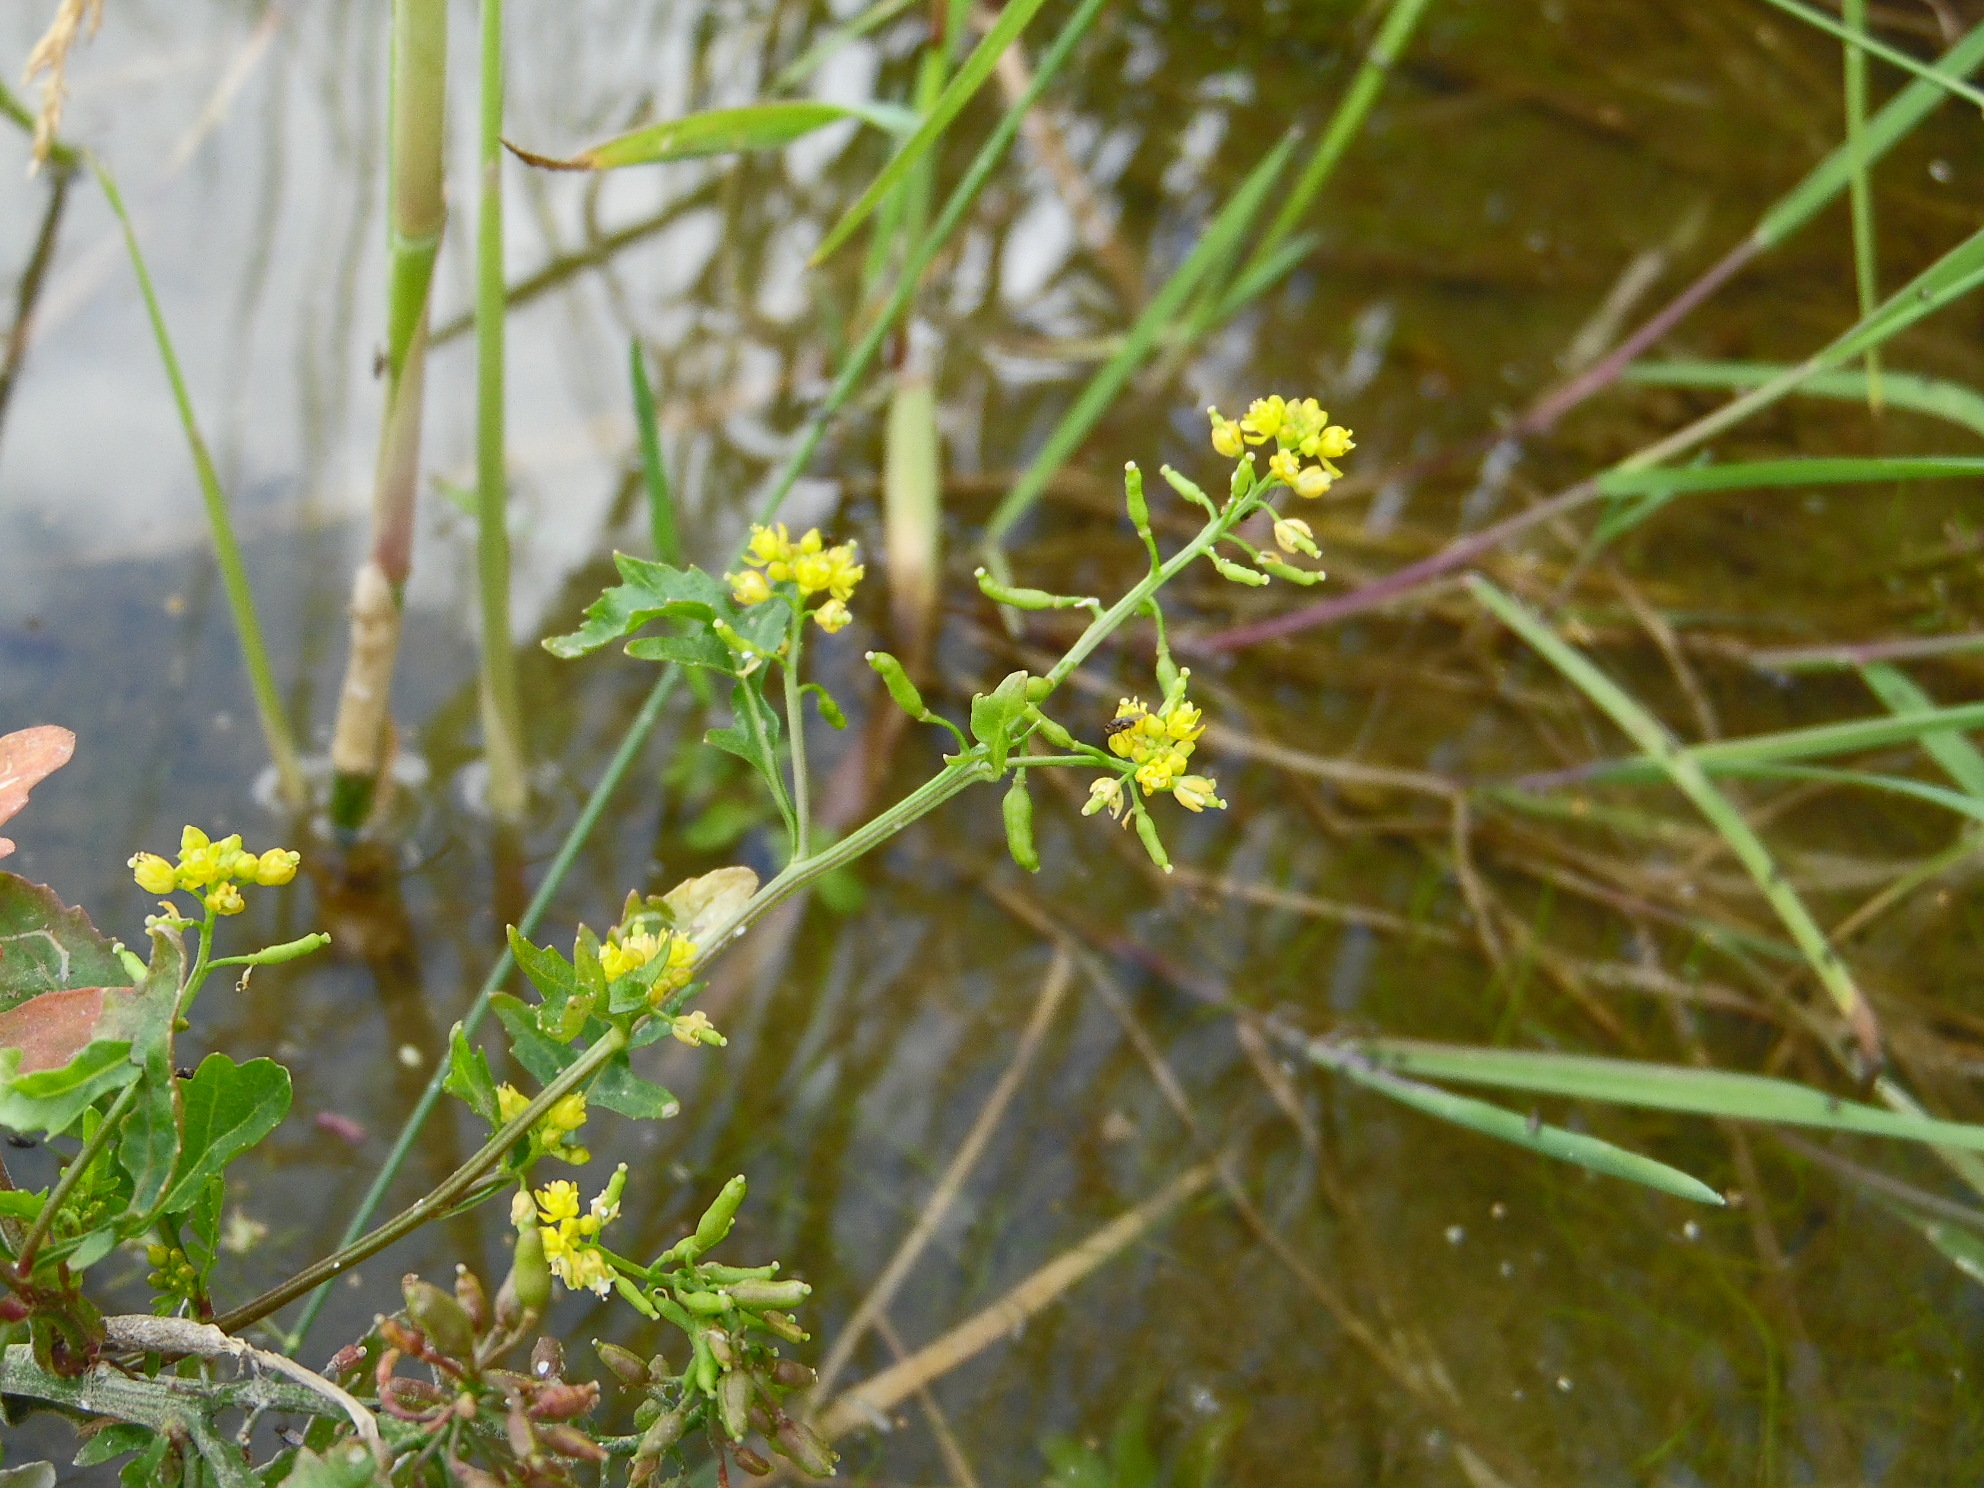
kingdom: Plantae
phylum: Tracheophyta
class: Magnoliopsida
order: Brassicales
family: Brassicaceae
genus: Rorippa
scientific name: Rorippa palustris
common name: Marsh yellow-cress
